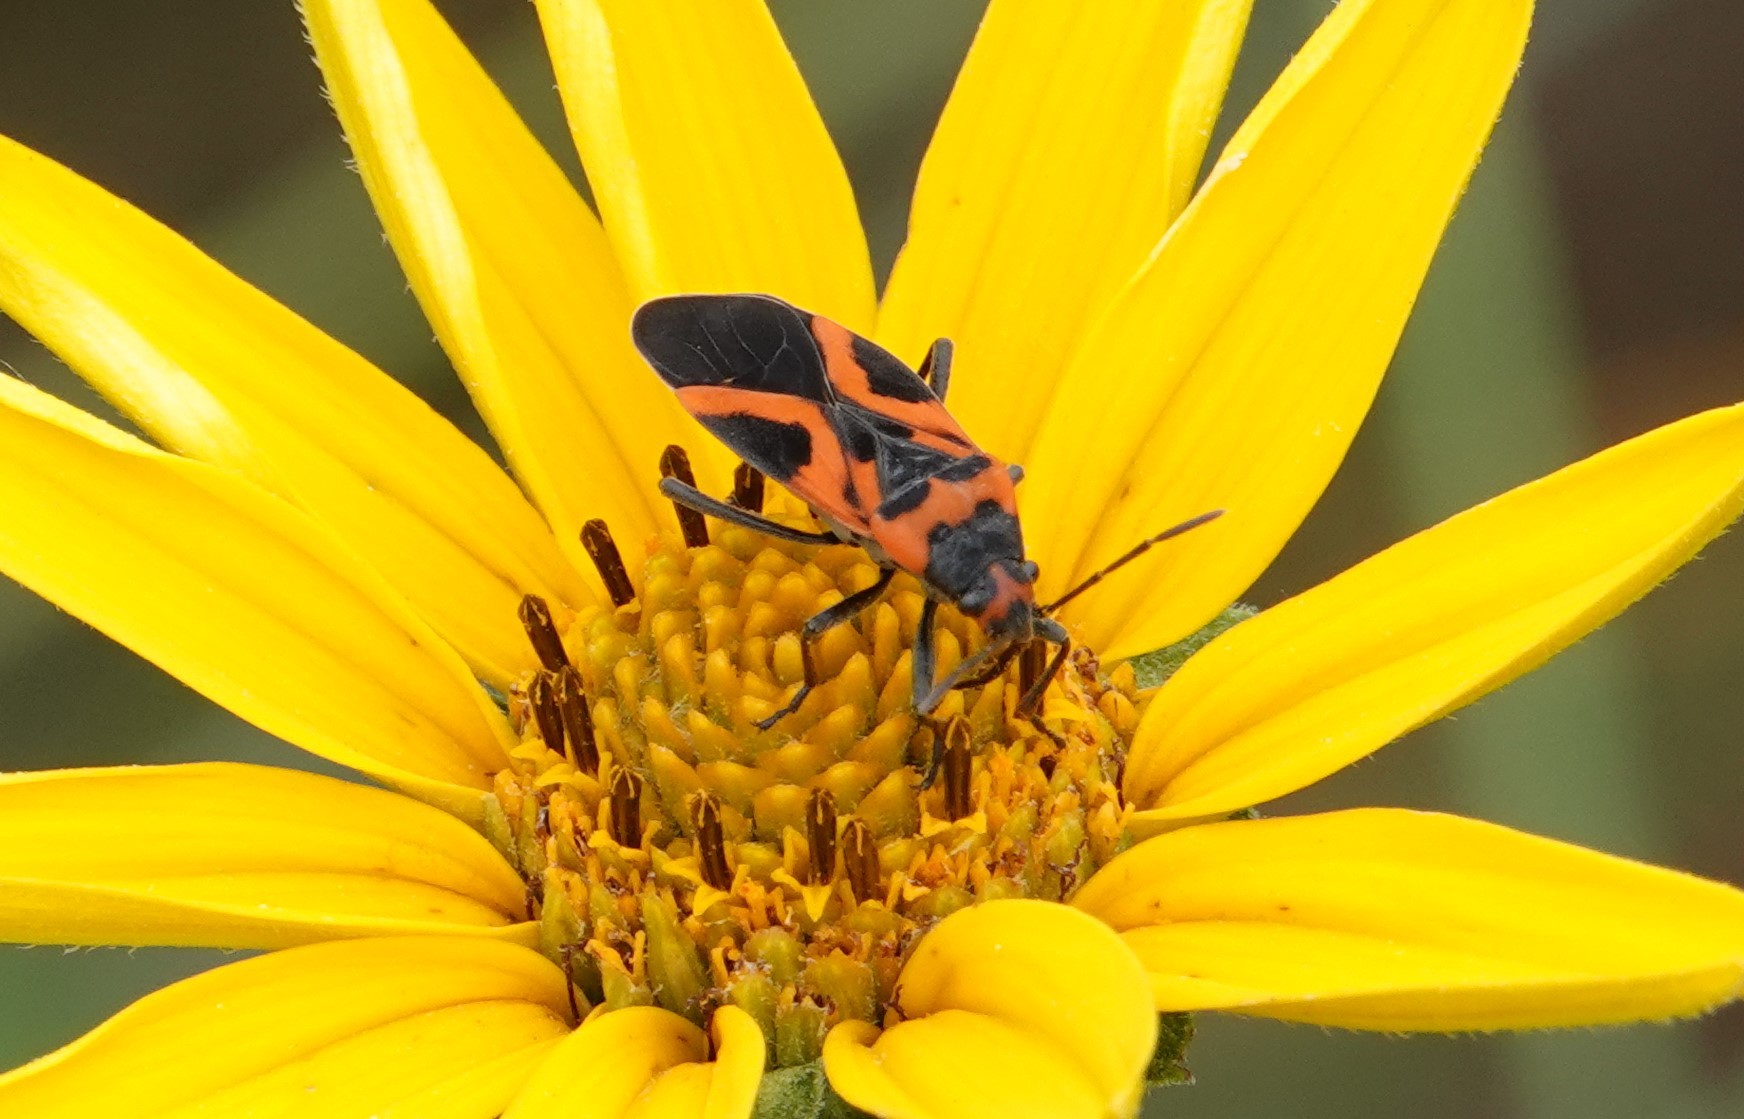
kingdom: Animalia
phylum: Arthropoda
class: Insecta
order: Hemiptera
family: Lygaeidae
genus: Lygaeus
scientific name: Lygaeus turcicus
